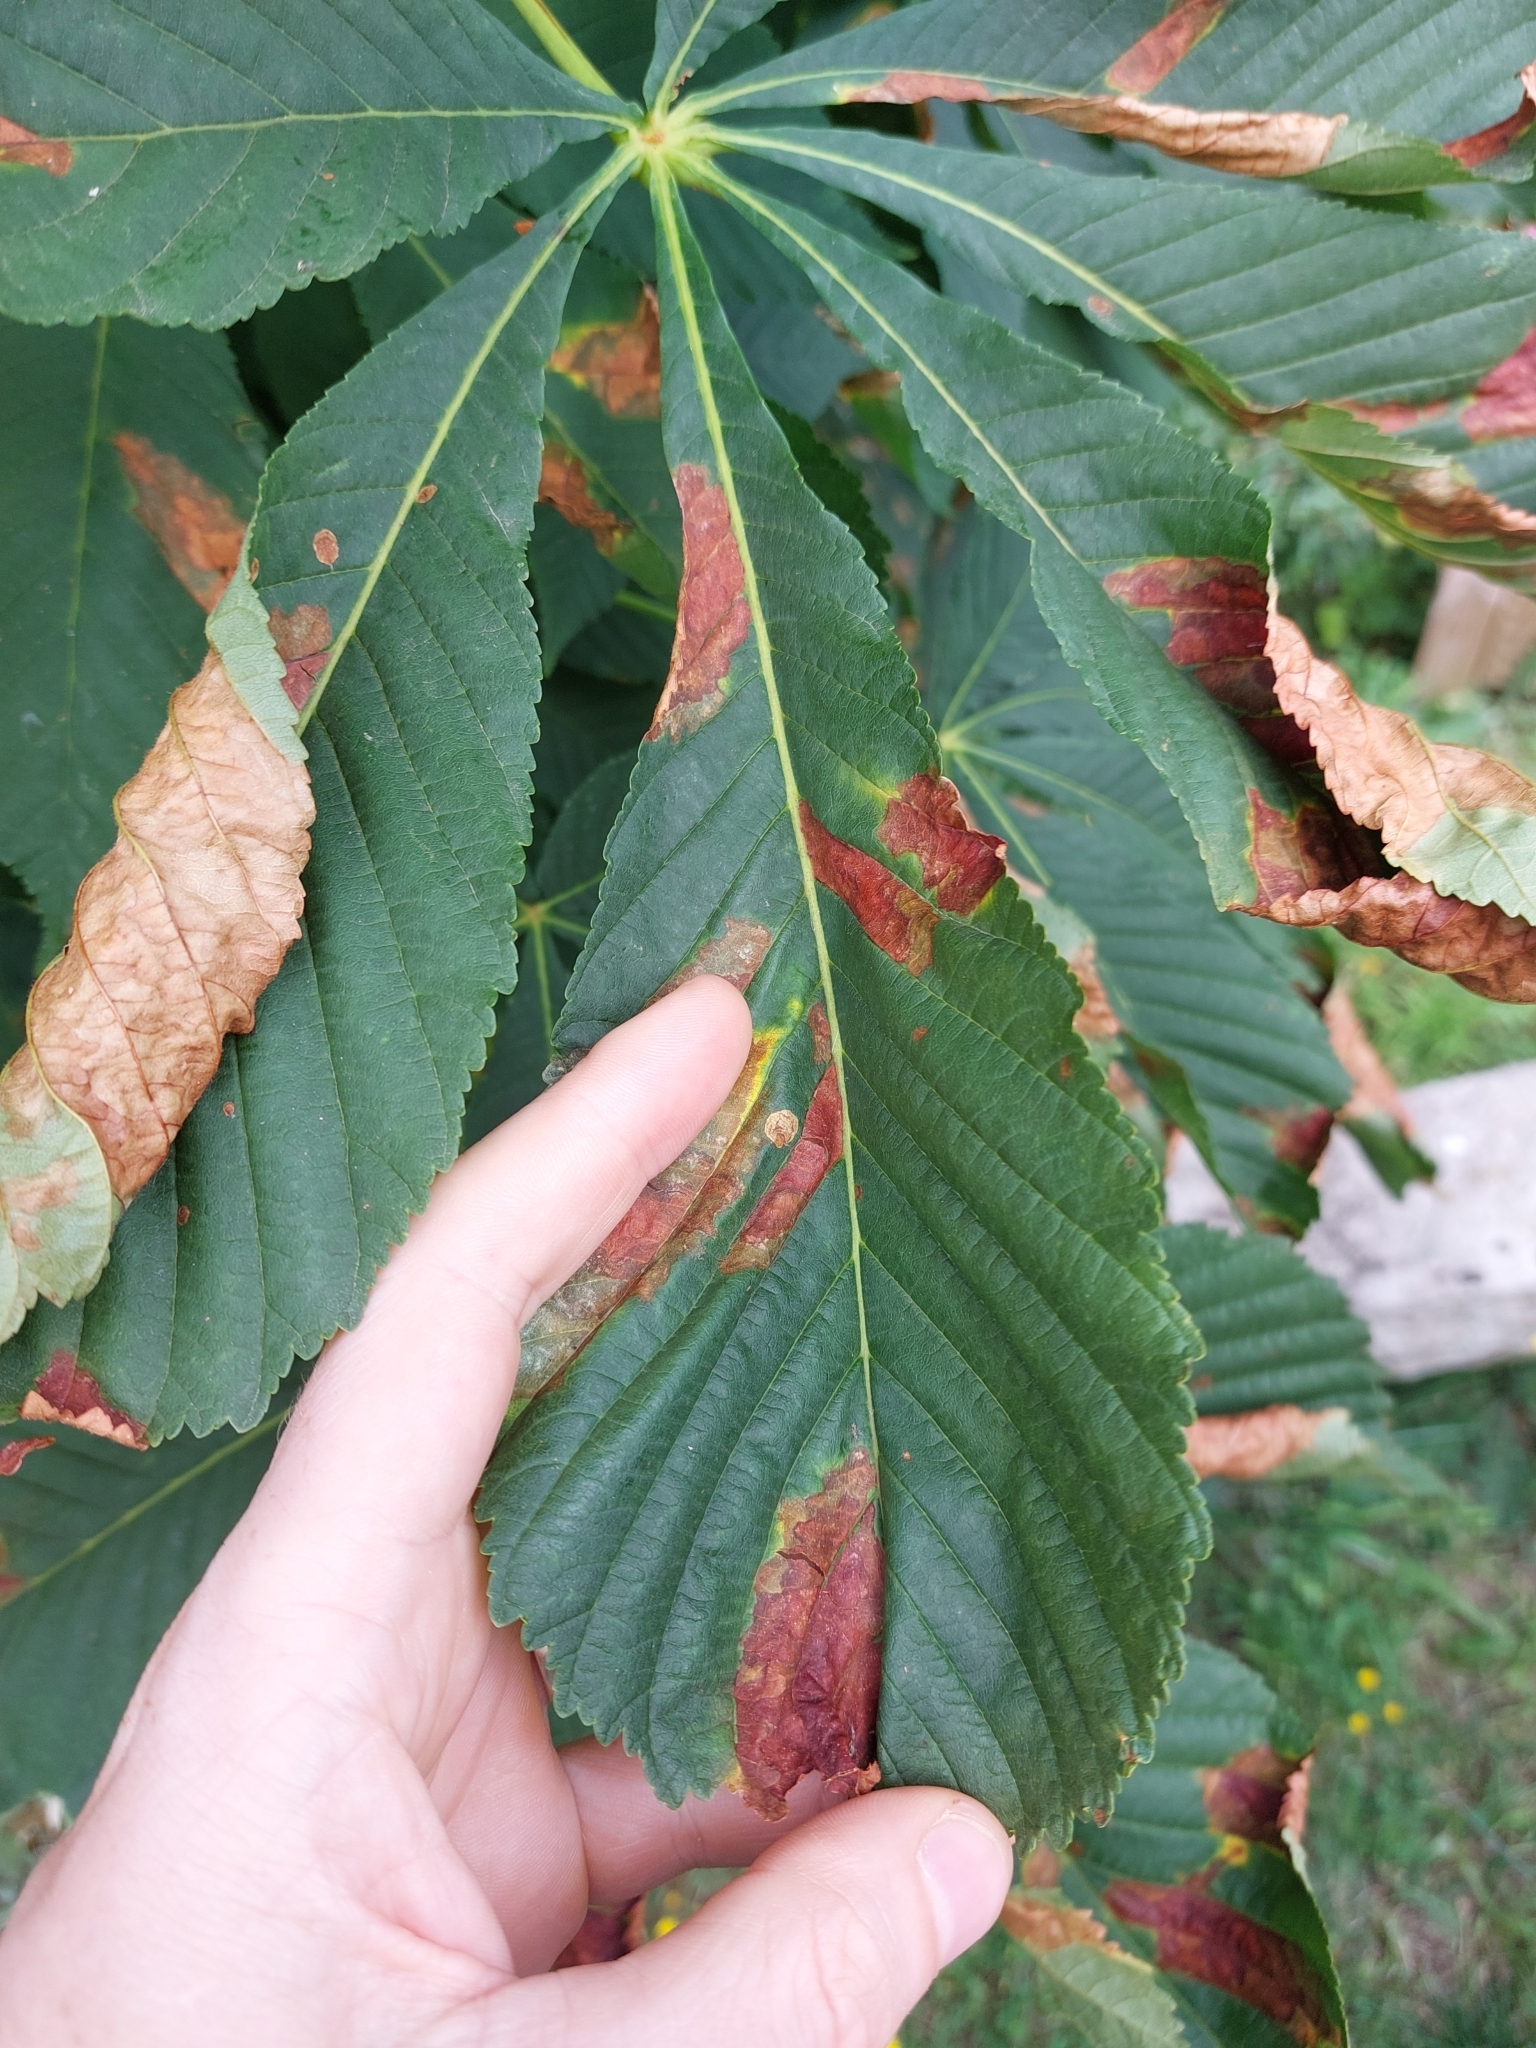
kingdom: Animalia
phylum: Arthropoda
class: Insecta
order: Lepidoptera
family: Gracillariidae
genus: Cameraria
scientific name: Cameraria ohridella
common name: Horse-chestnut leaf-miner
